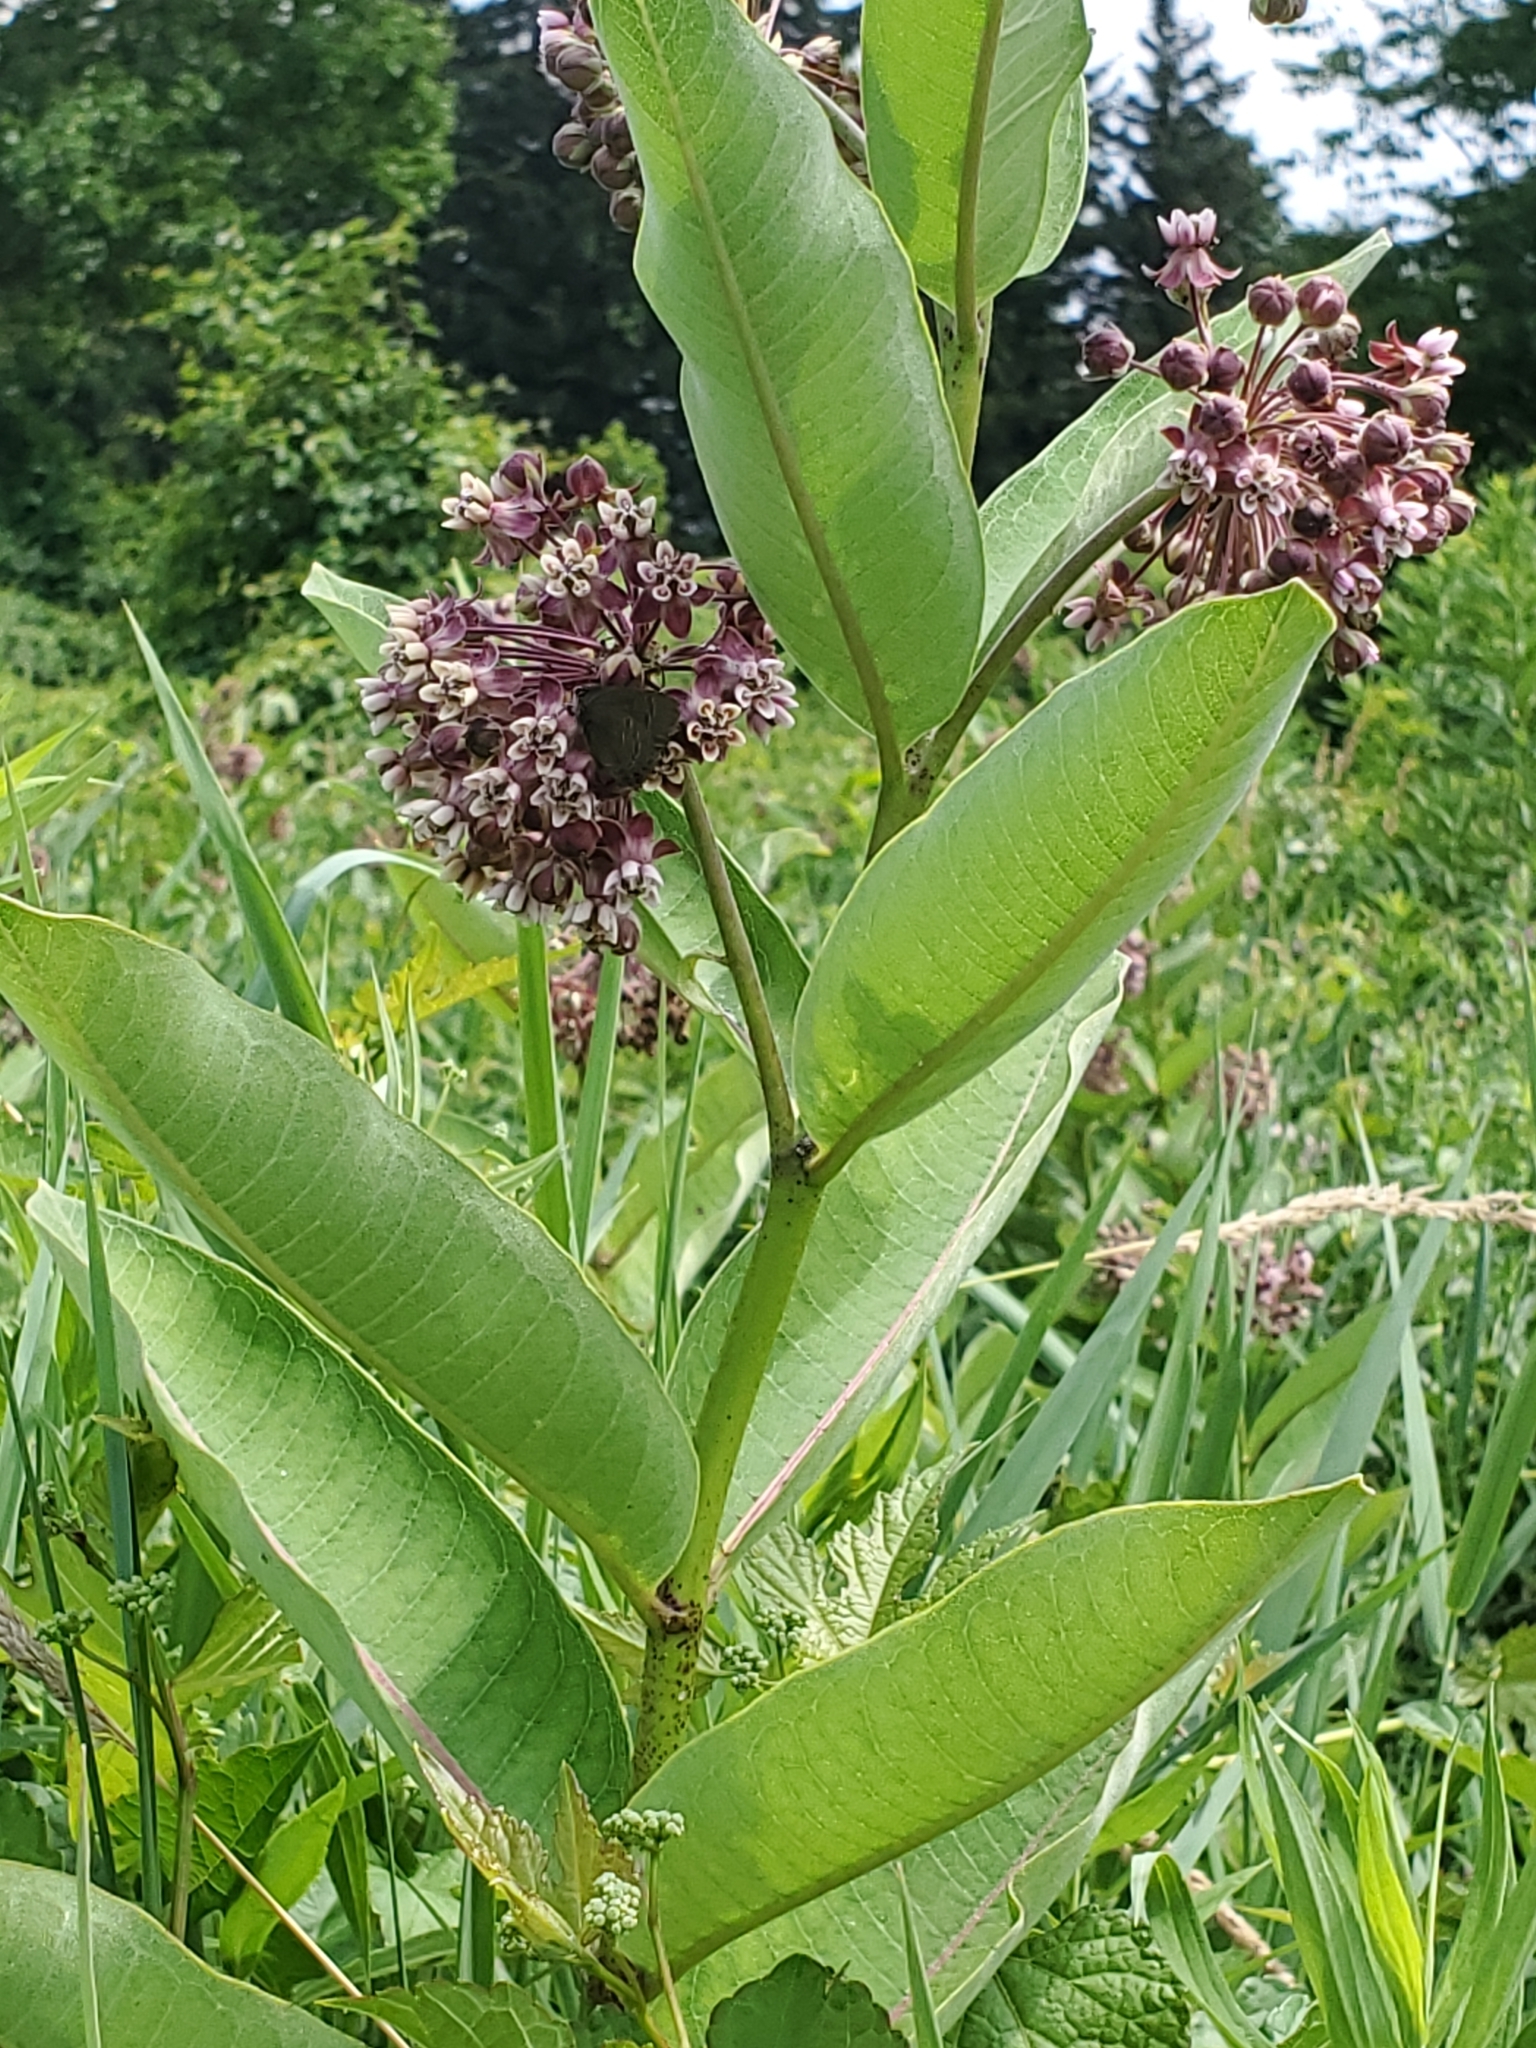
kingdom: Plantae
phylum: Tracheophyta
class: Magnoliopsida
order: Gentianales
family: Apocynaceae
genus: Asclepias
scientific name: Asclepias syriaca
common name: Common milkweed
